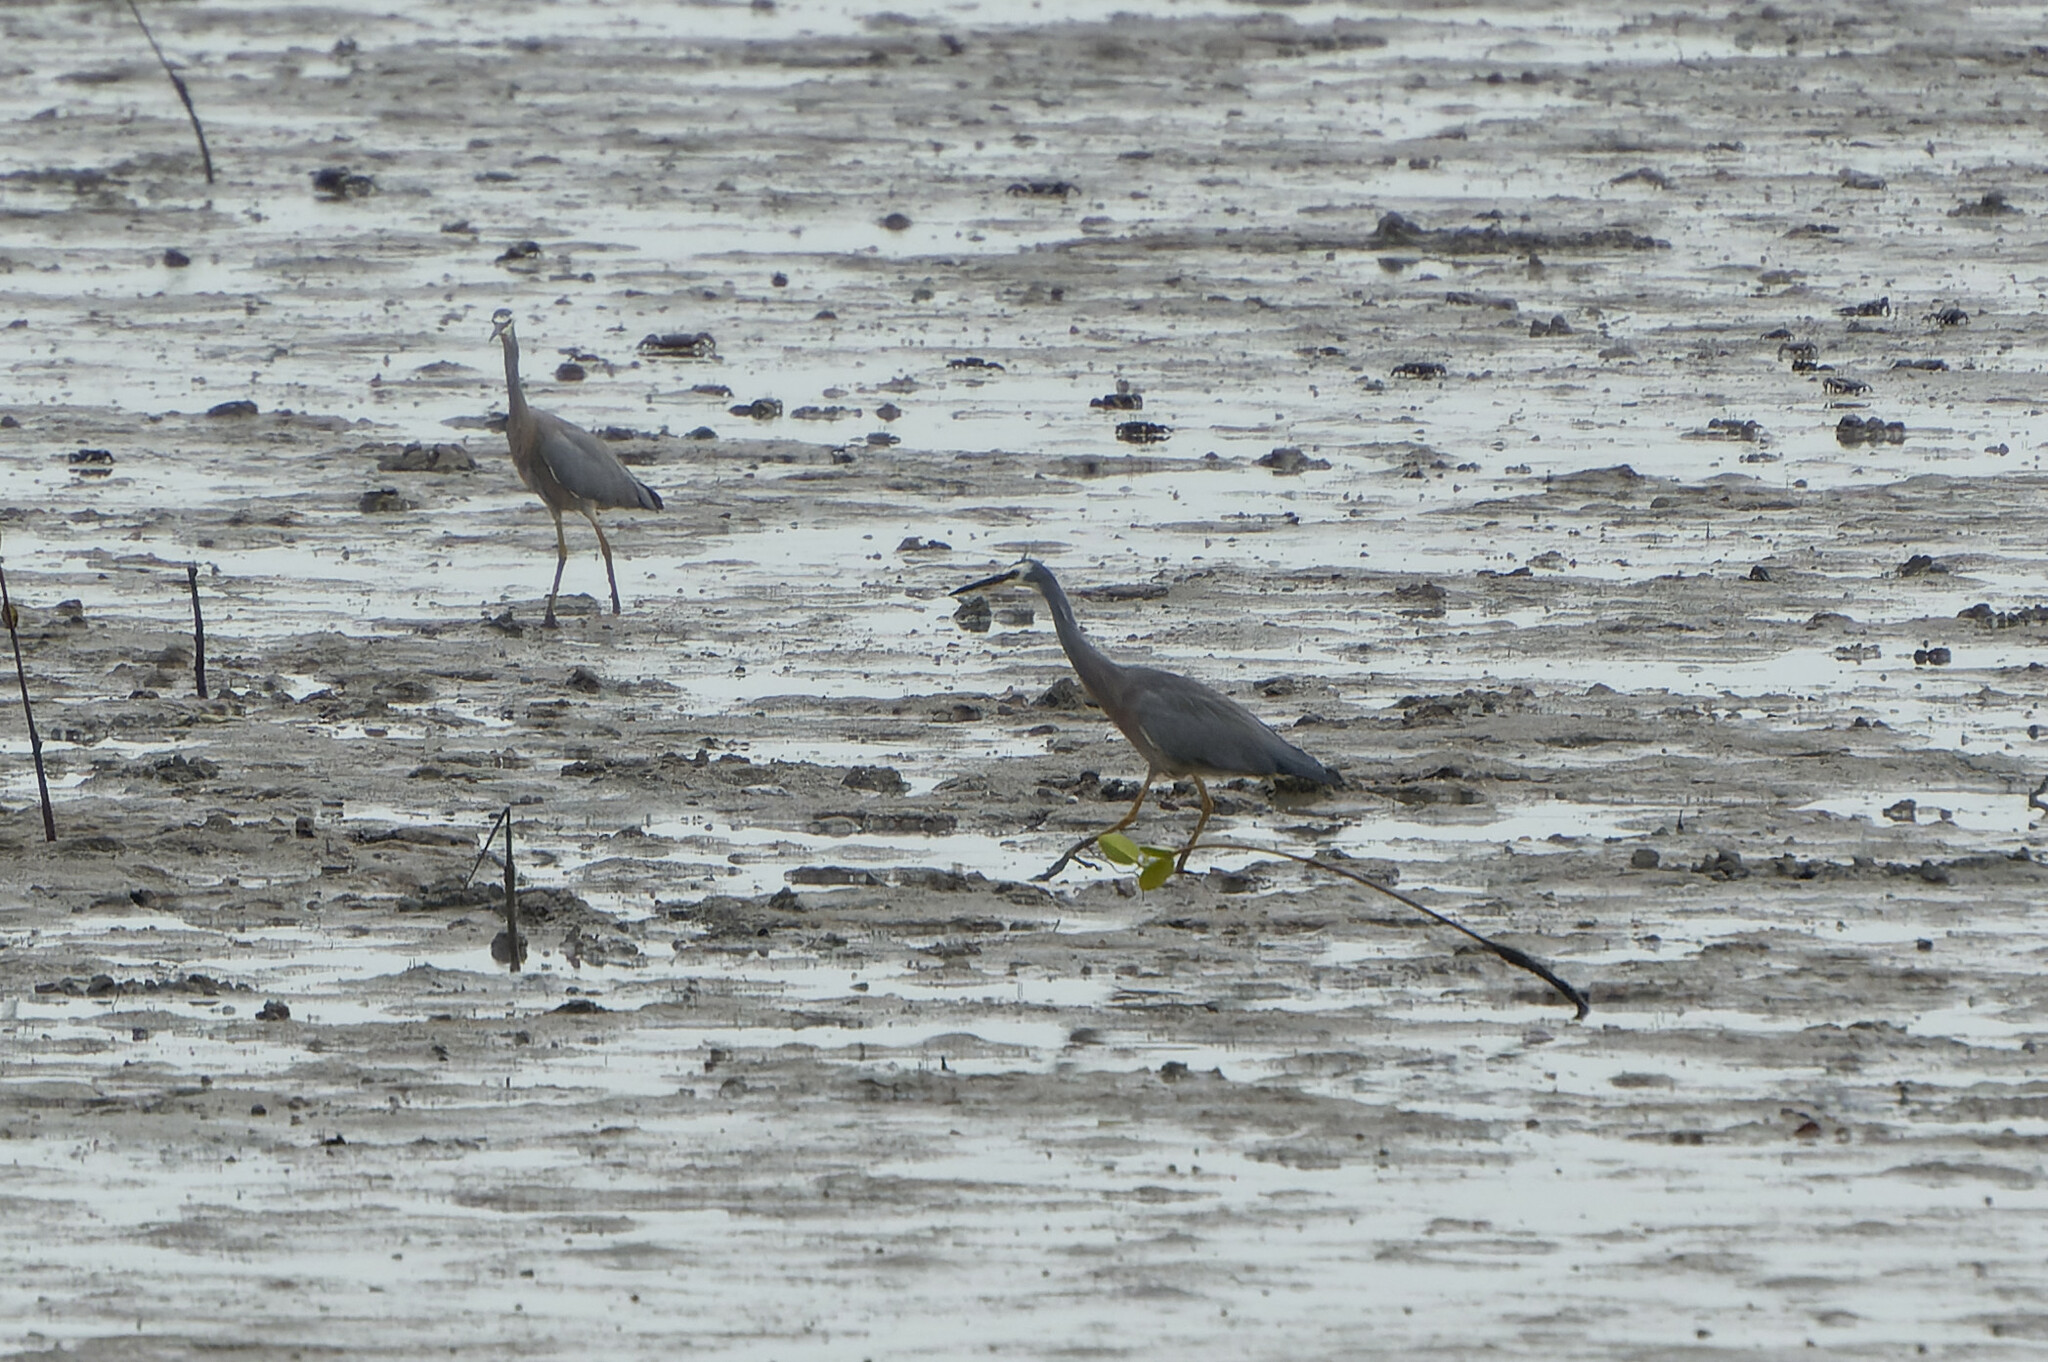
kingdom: Animalia
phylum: Chordata
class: Aves
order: Pelecaniformes
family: Ardeidae
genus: Egretta
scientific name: Egretta novaehollandiae
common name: White-faced heron
